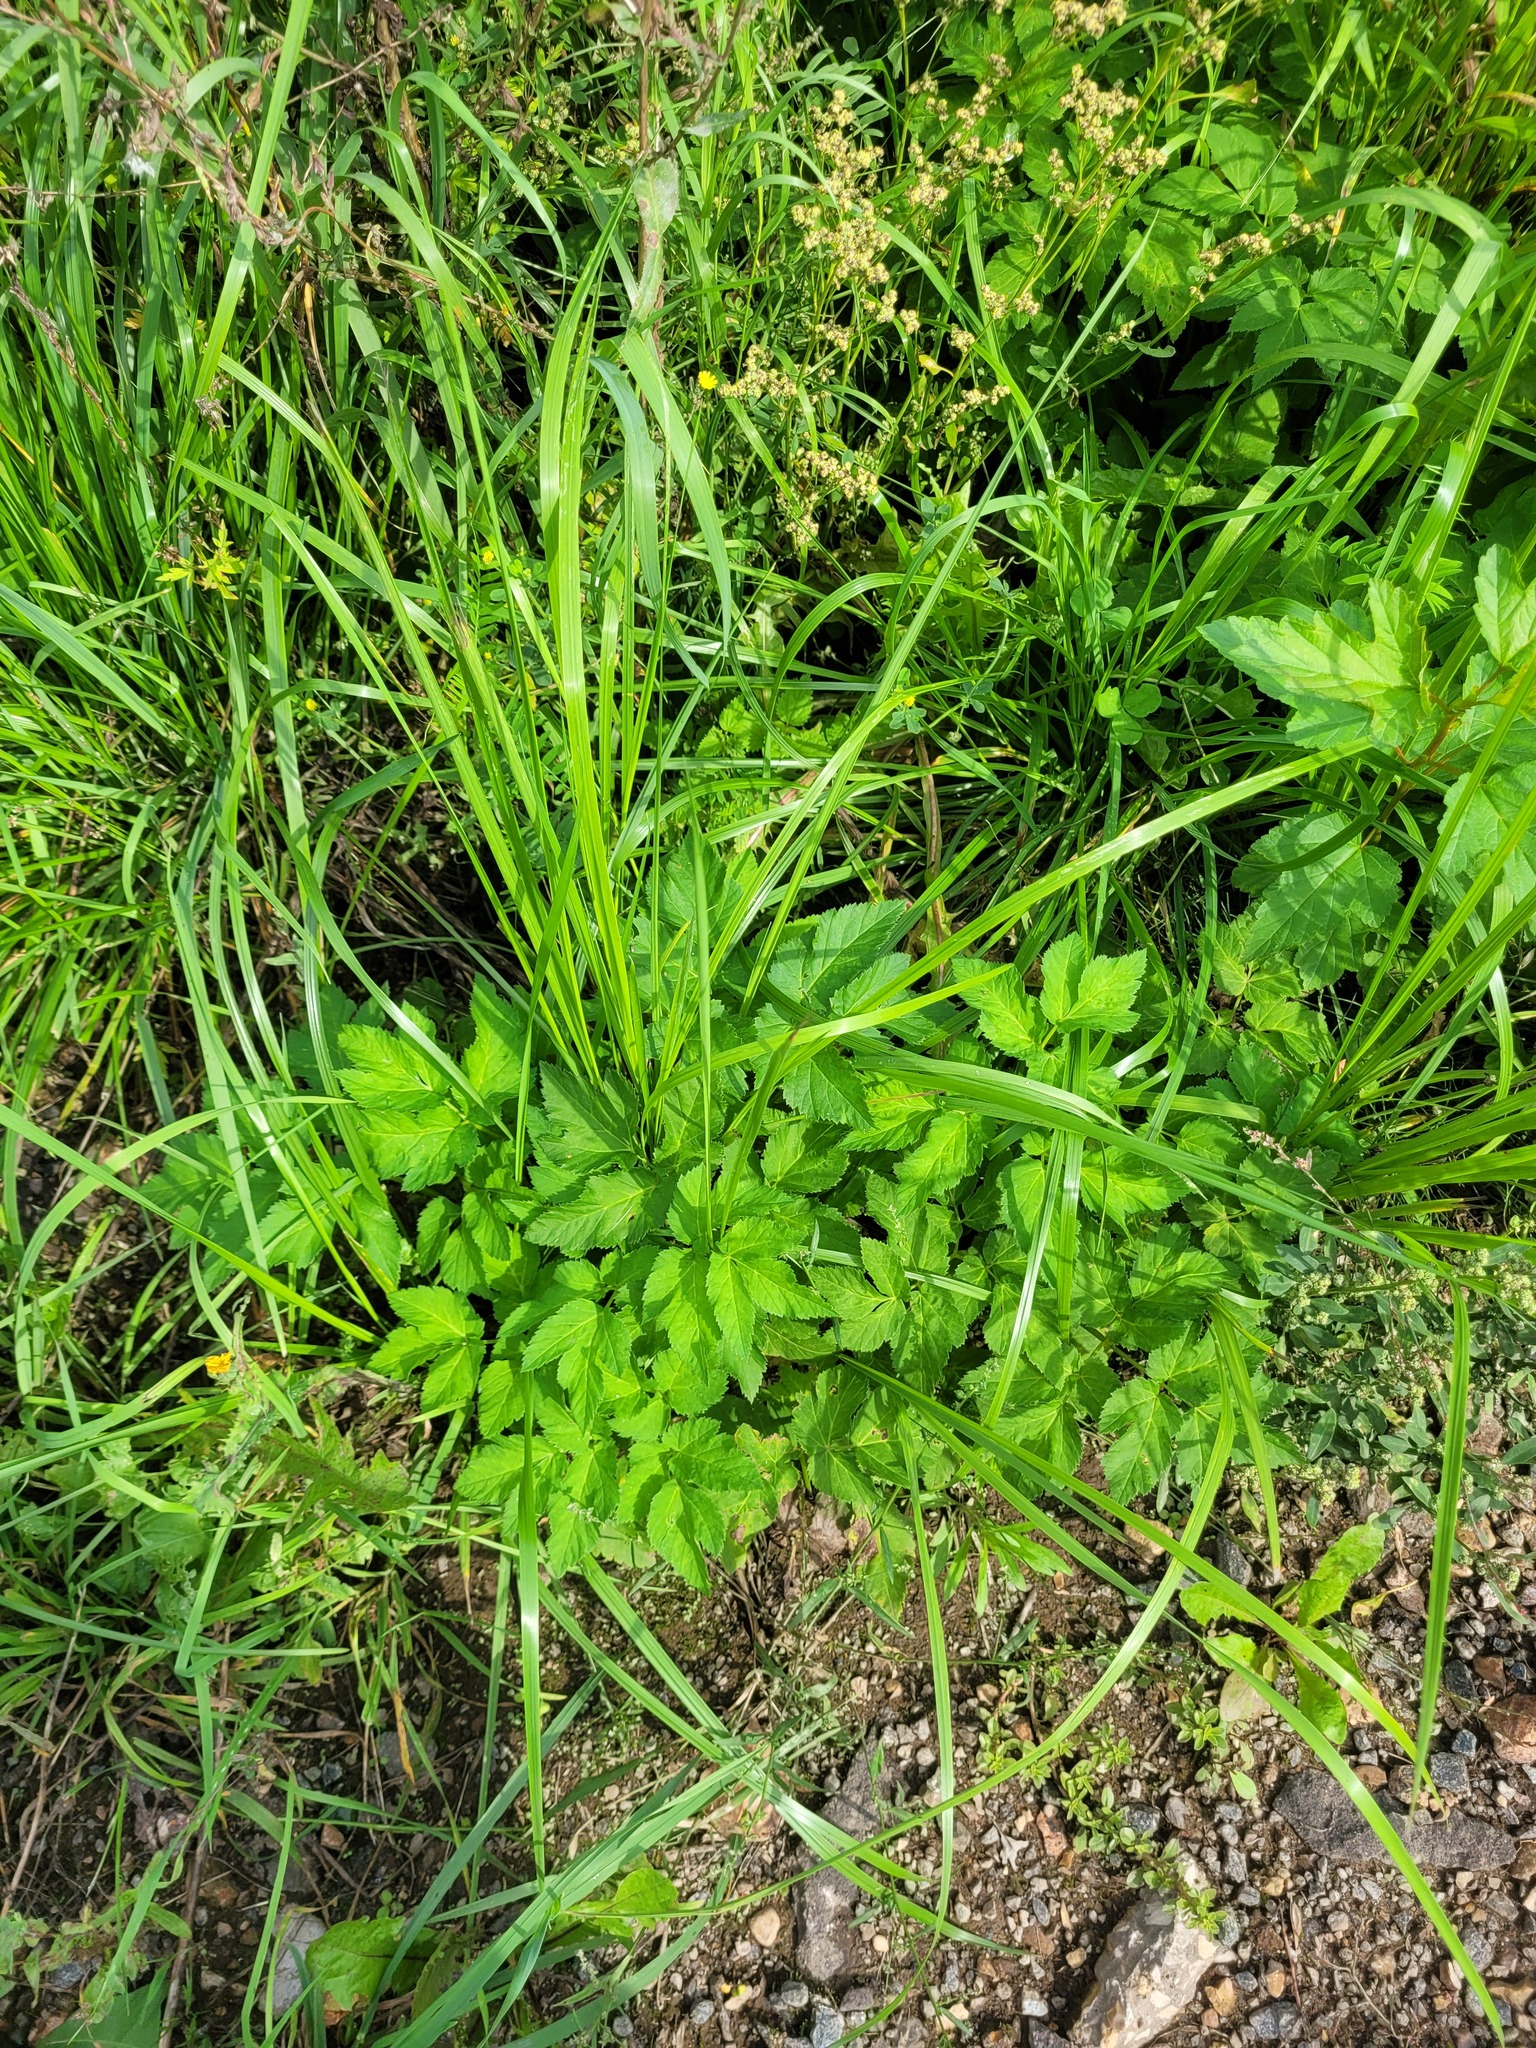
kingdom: Plantae
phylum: Tracheophyta
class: Magnoliopsida
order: Apiales
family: Apiaceae
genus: Aegopodium
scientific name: Aegopodium podagraria
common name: Ground-elder
